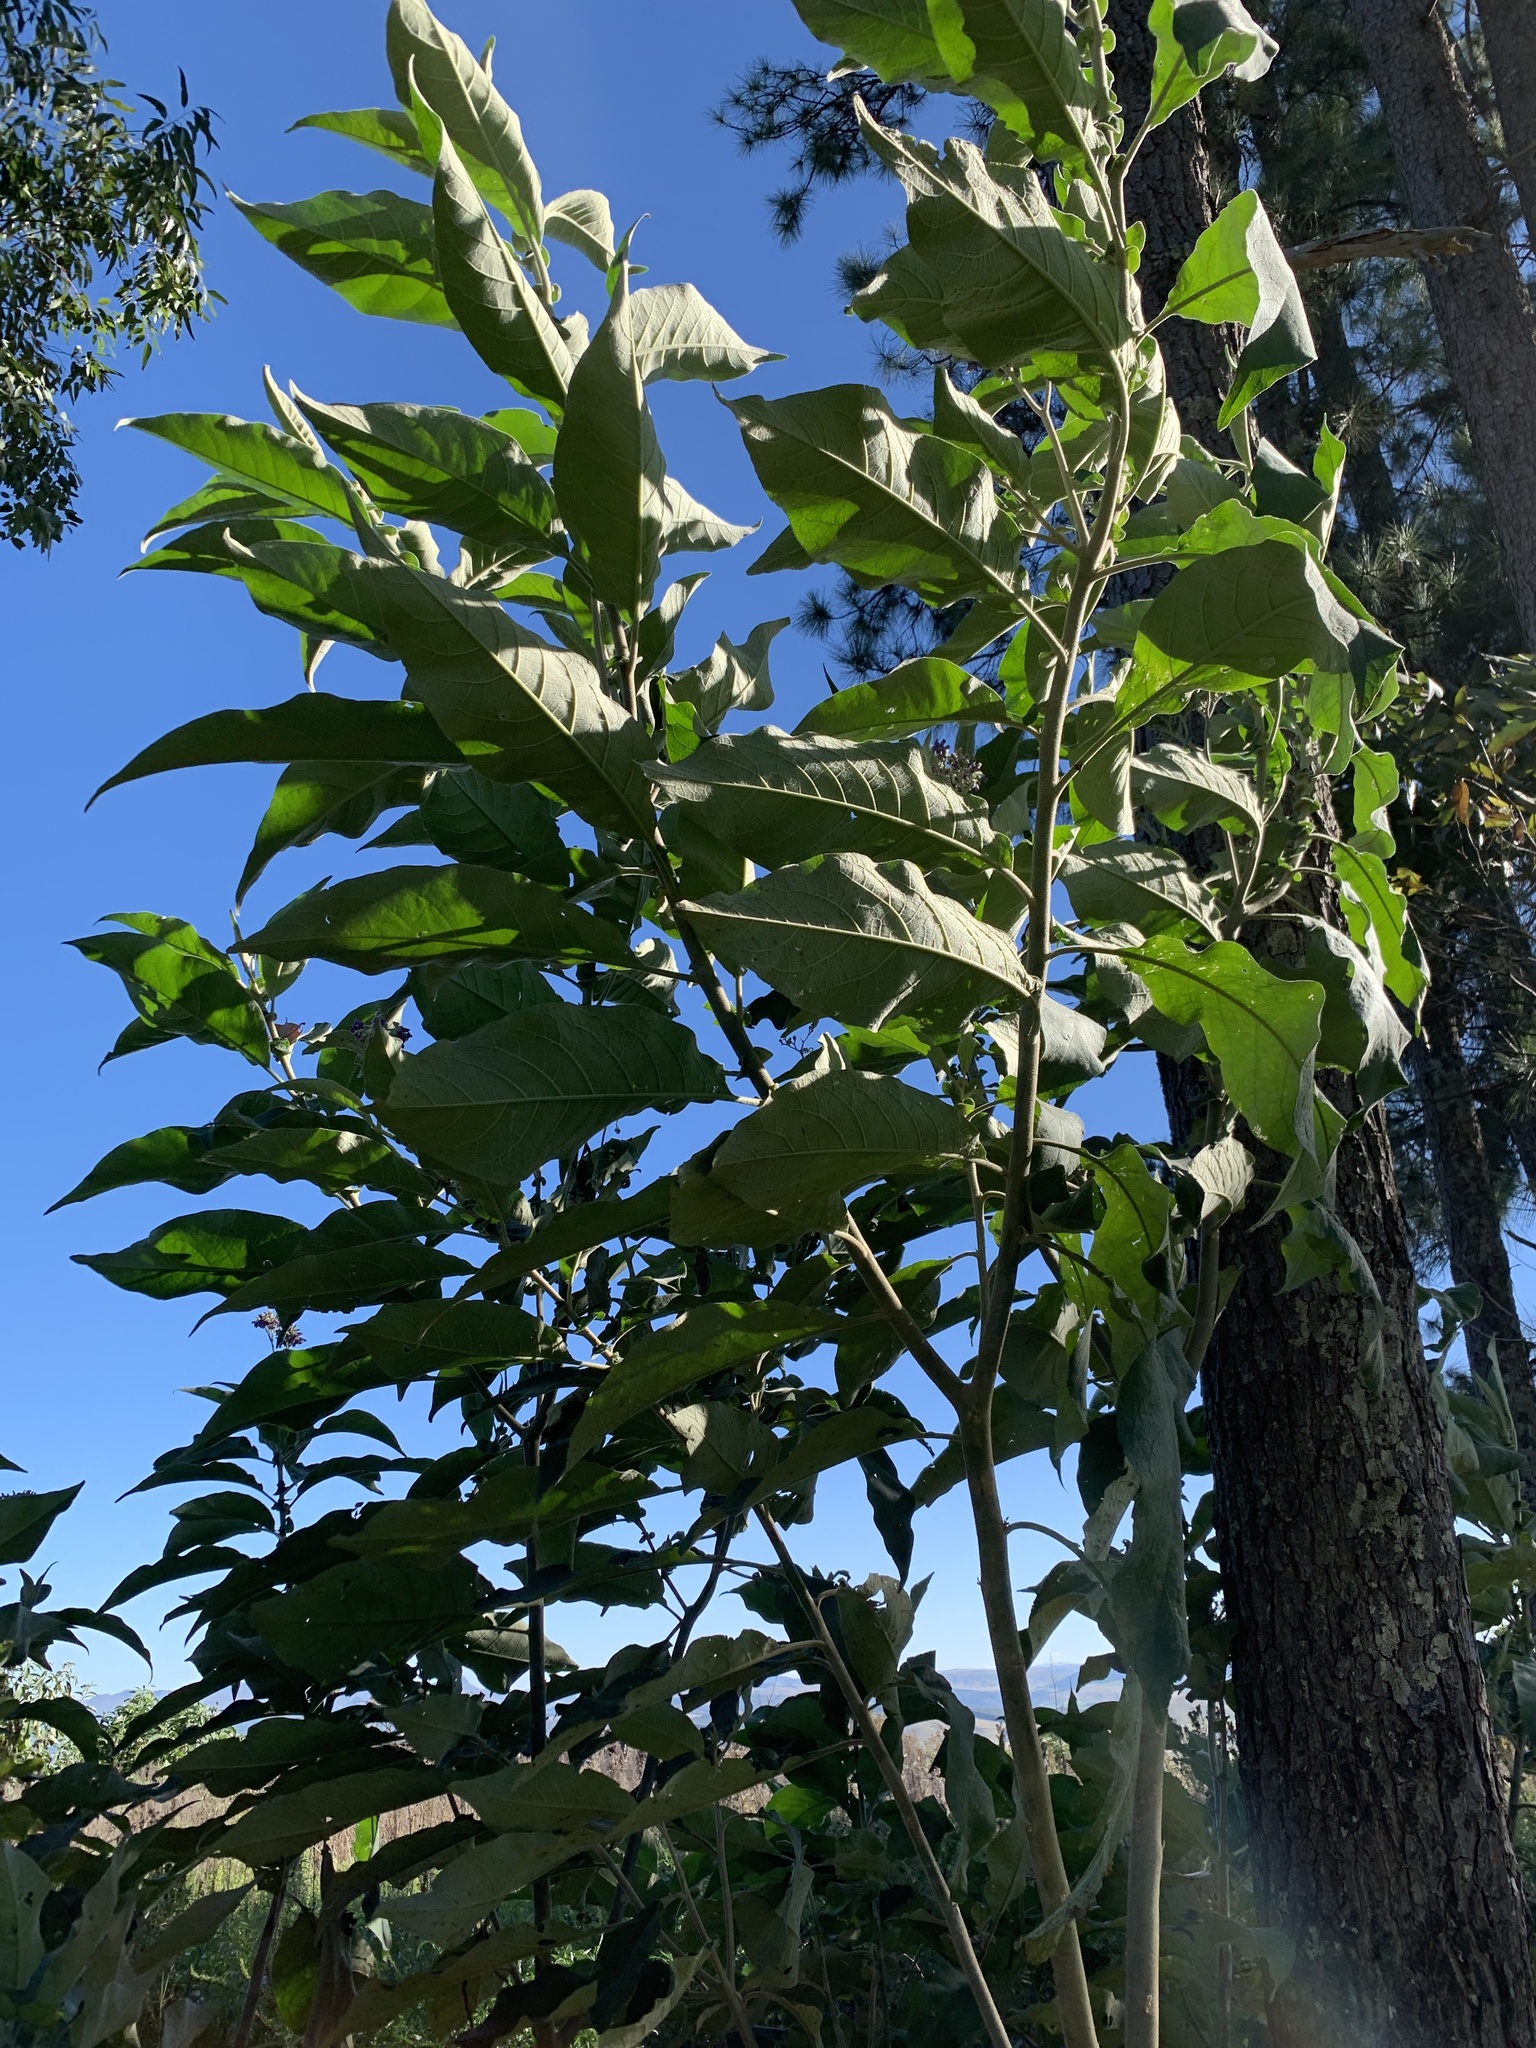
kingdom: Plantae
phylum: Tracheophyta
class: Magnoliopsida
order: Solanales
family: Solanaceae
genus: Solanum
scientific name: Solanum mauritianum
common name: Earleaf nightshade
